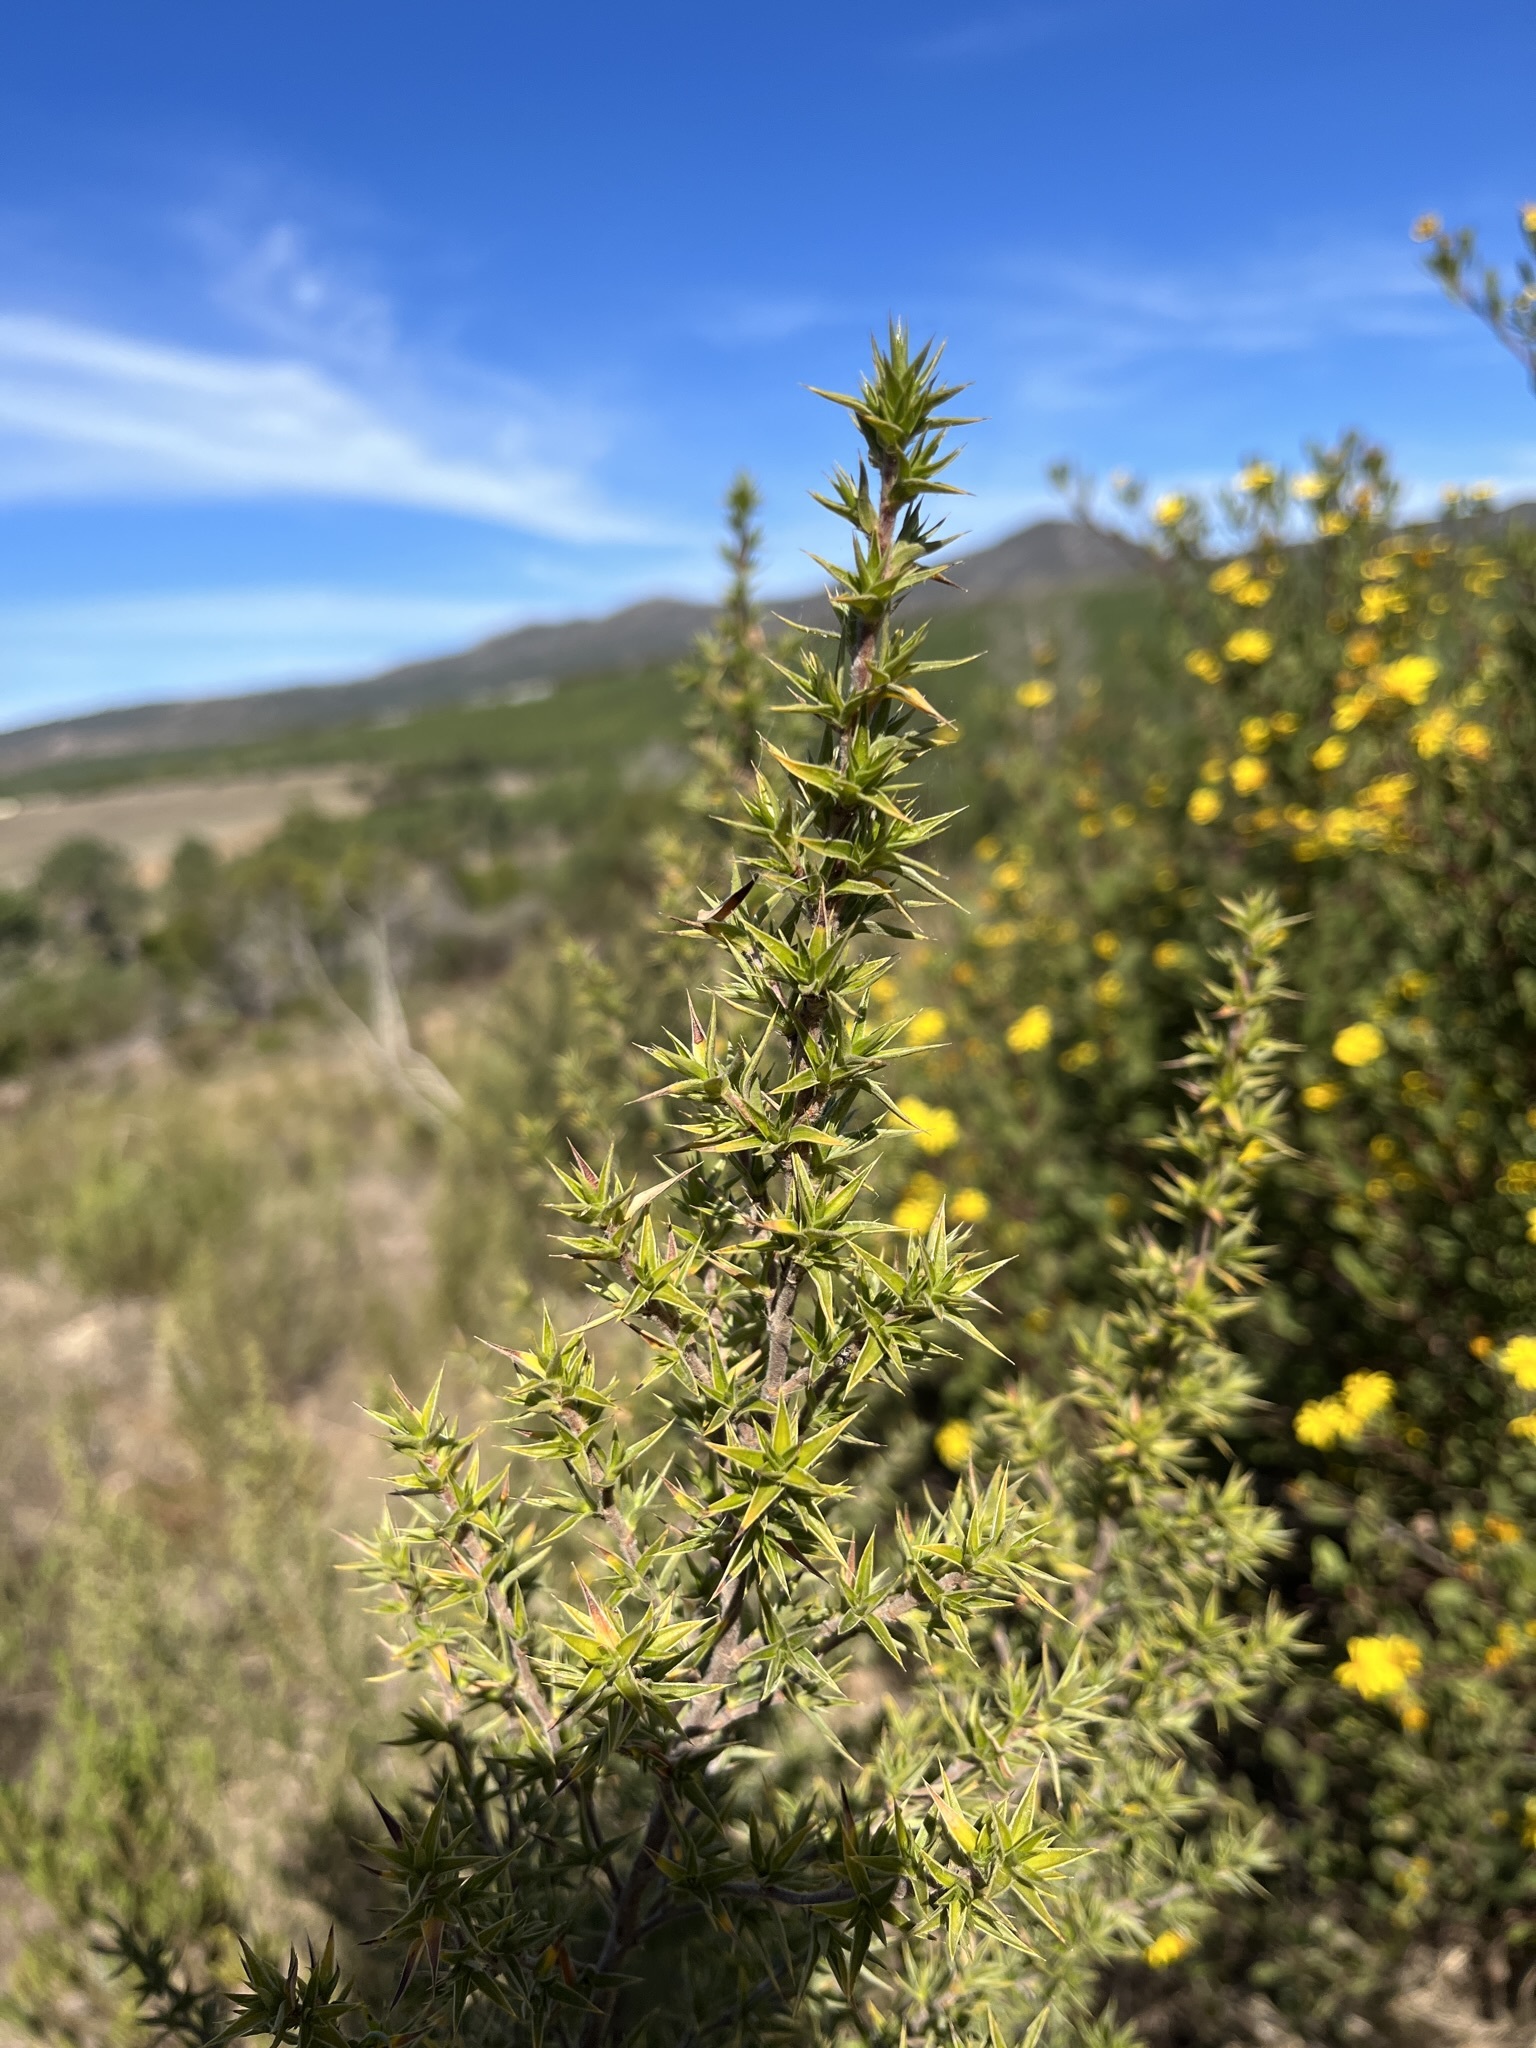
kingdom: Plantae
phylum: Tracheophyta
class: Magnoliopsida
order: Rosales
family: Rosaceae
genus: Cliffortia
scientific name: Cliffortia ruscifolia
